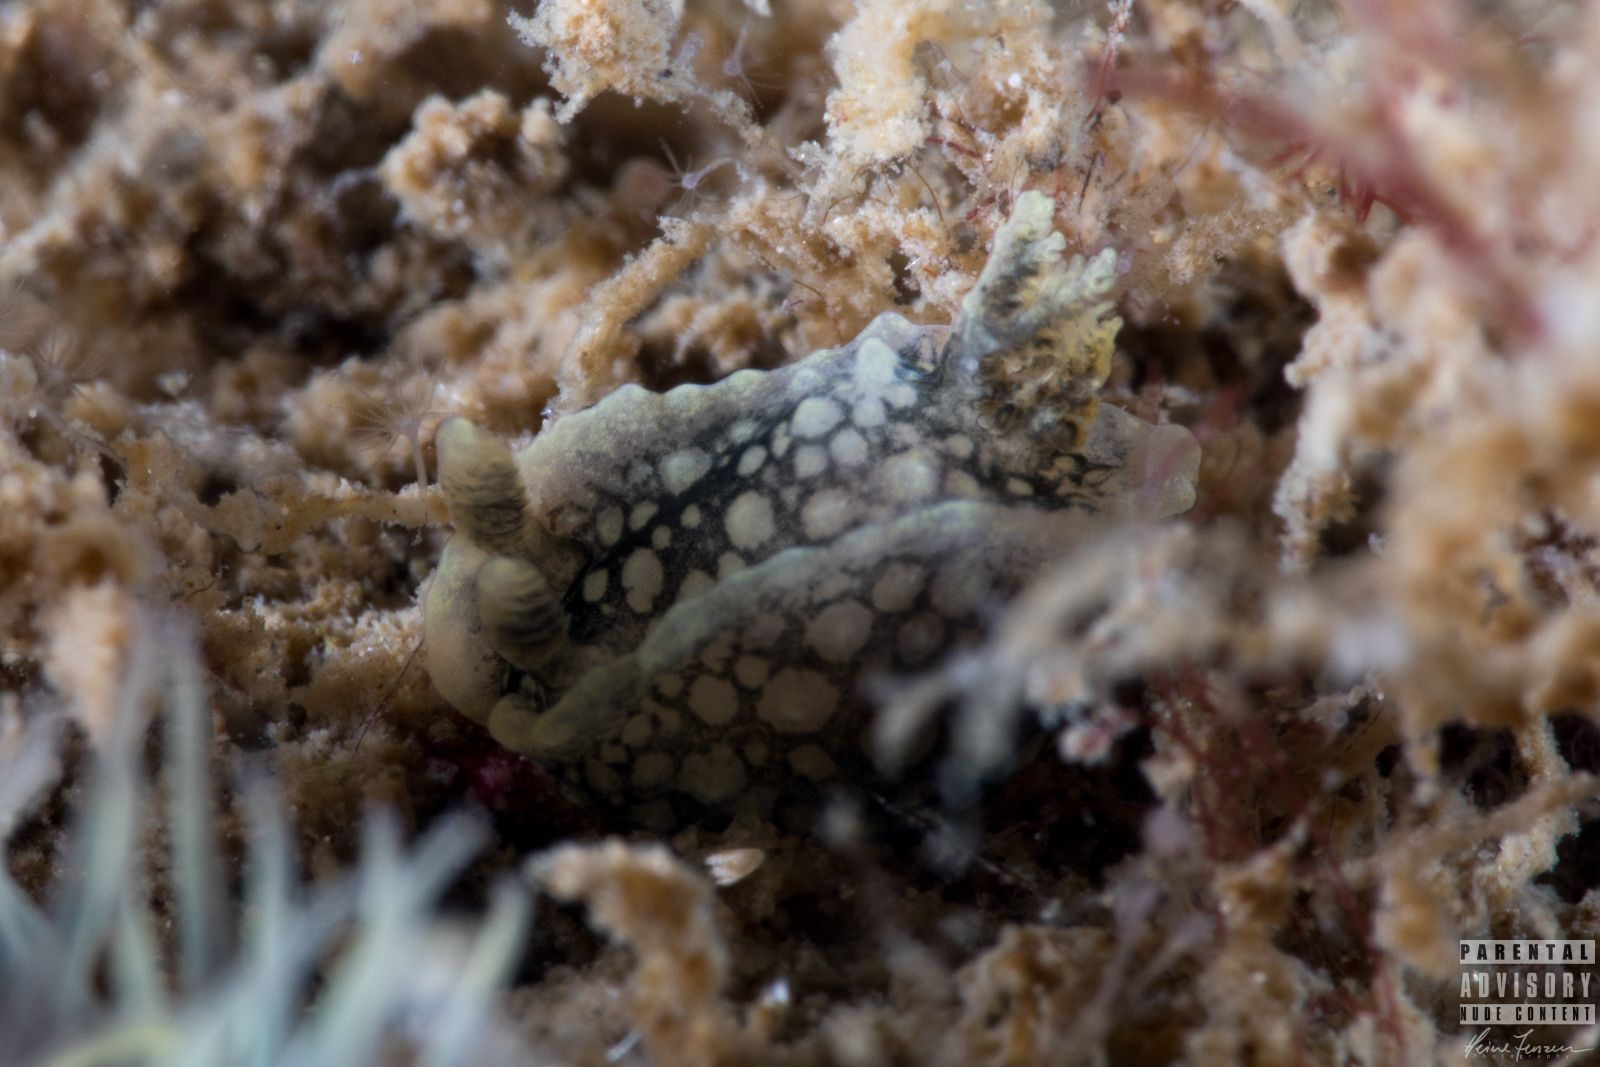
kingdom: Animalia
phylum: Mollusca
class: Gastropoda
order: Nudibranchia
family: Polyceridae
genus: Palio
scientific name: Palio nothus
